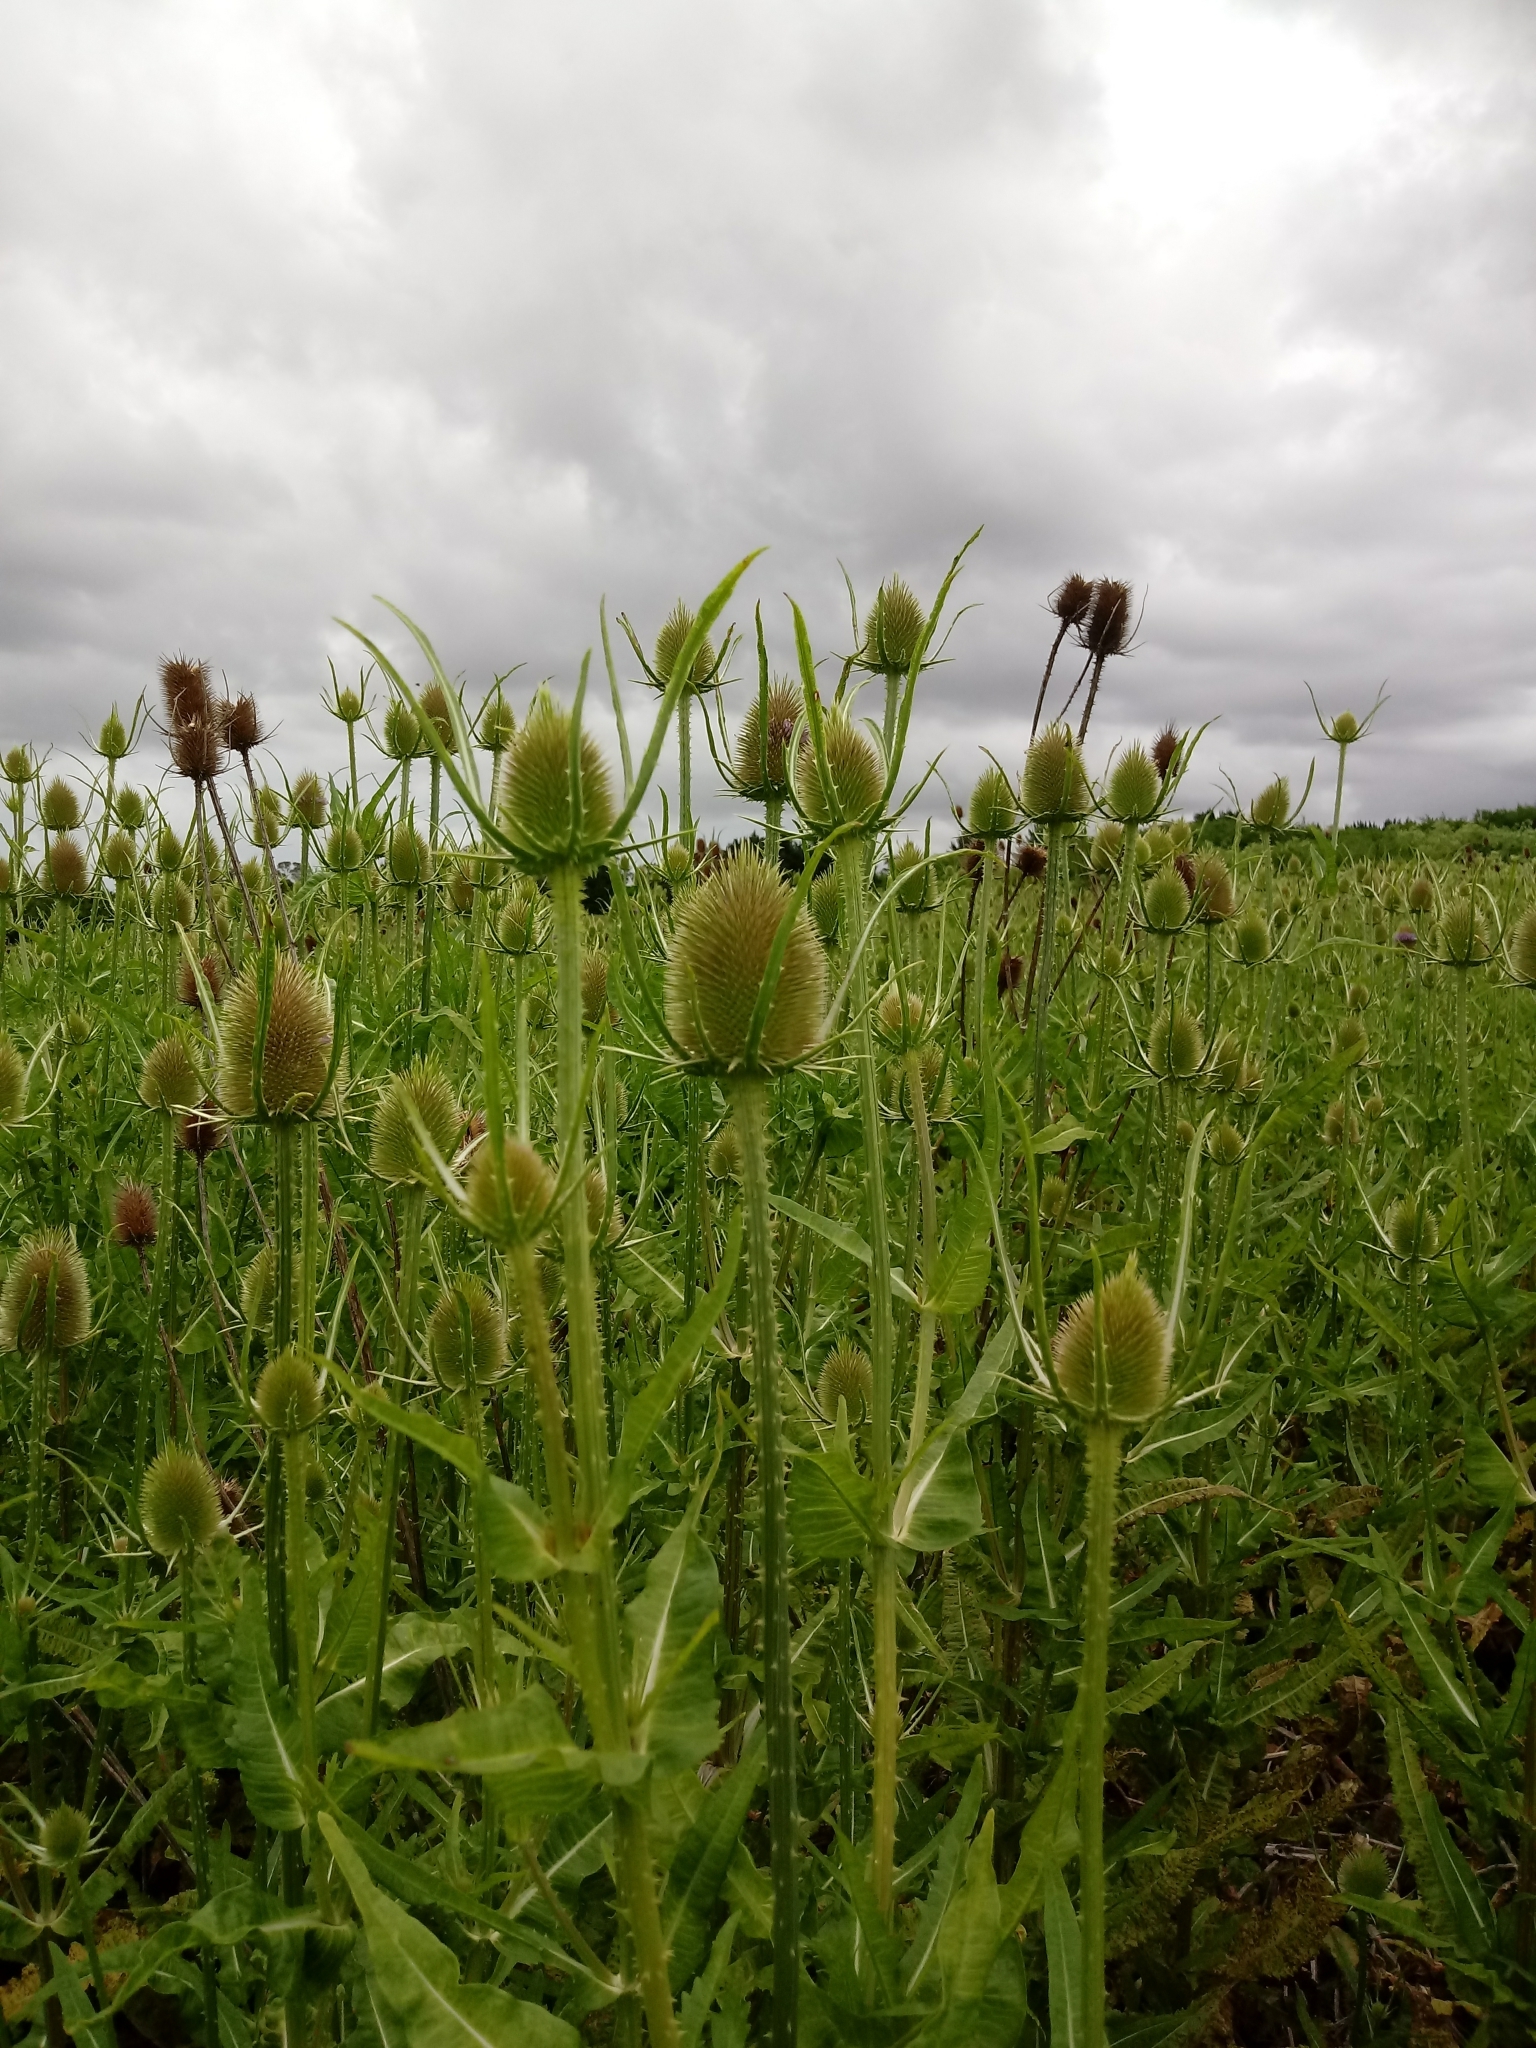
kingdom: Plantae
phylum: Tracheophyta
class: Magnoliopsida
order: Dipsacales
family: Caprifoliaceae
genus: Dipsacus
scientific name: Dipsacus fullonum
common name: Teasel
